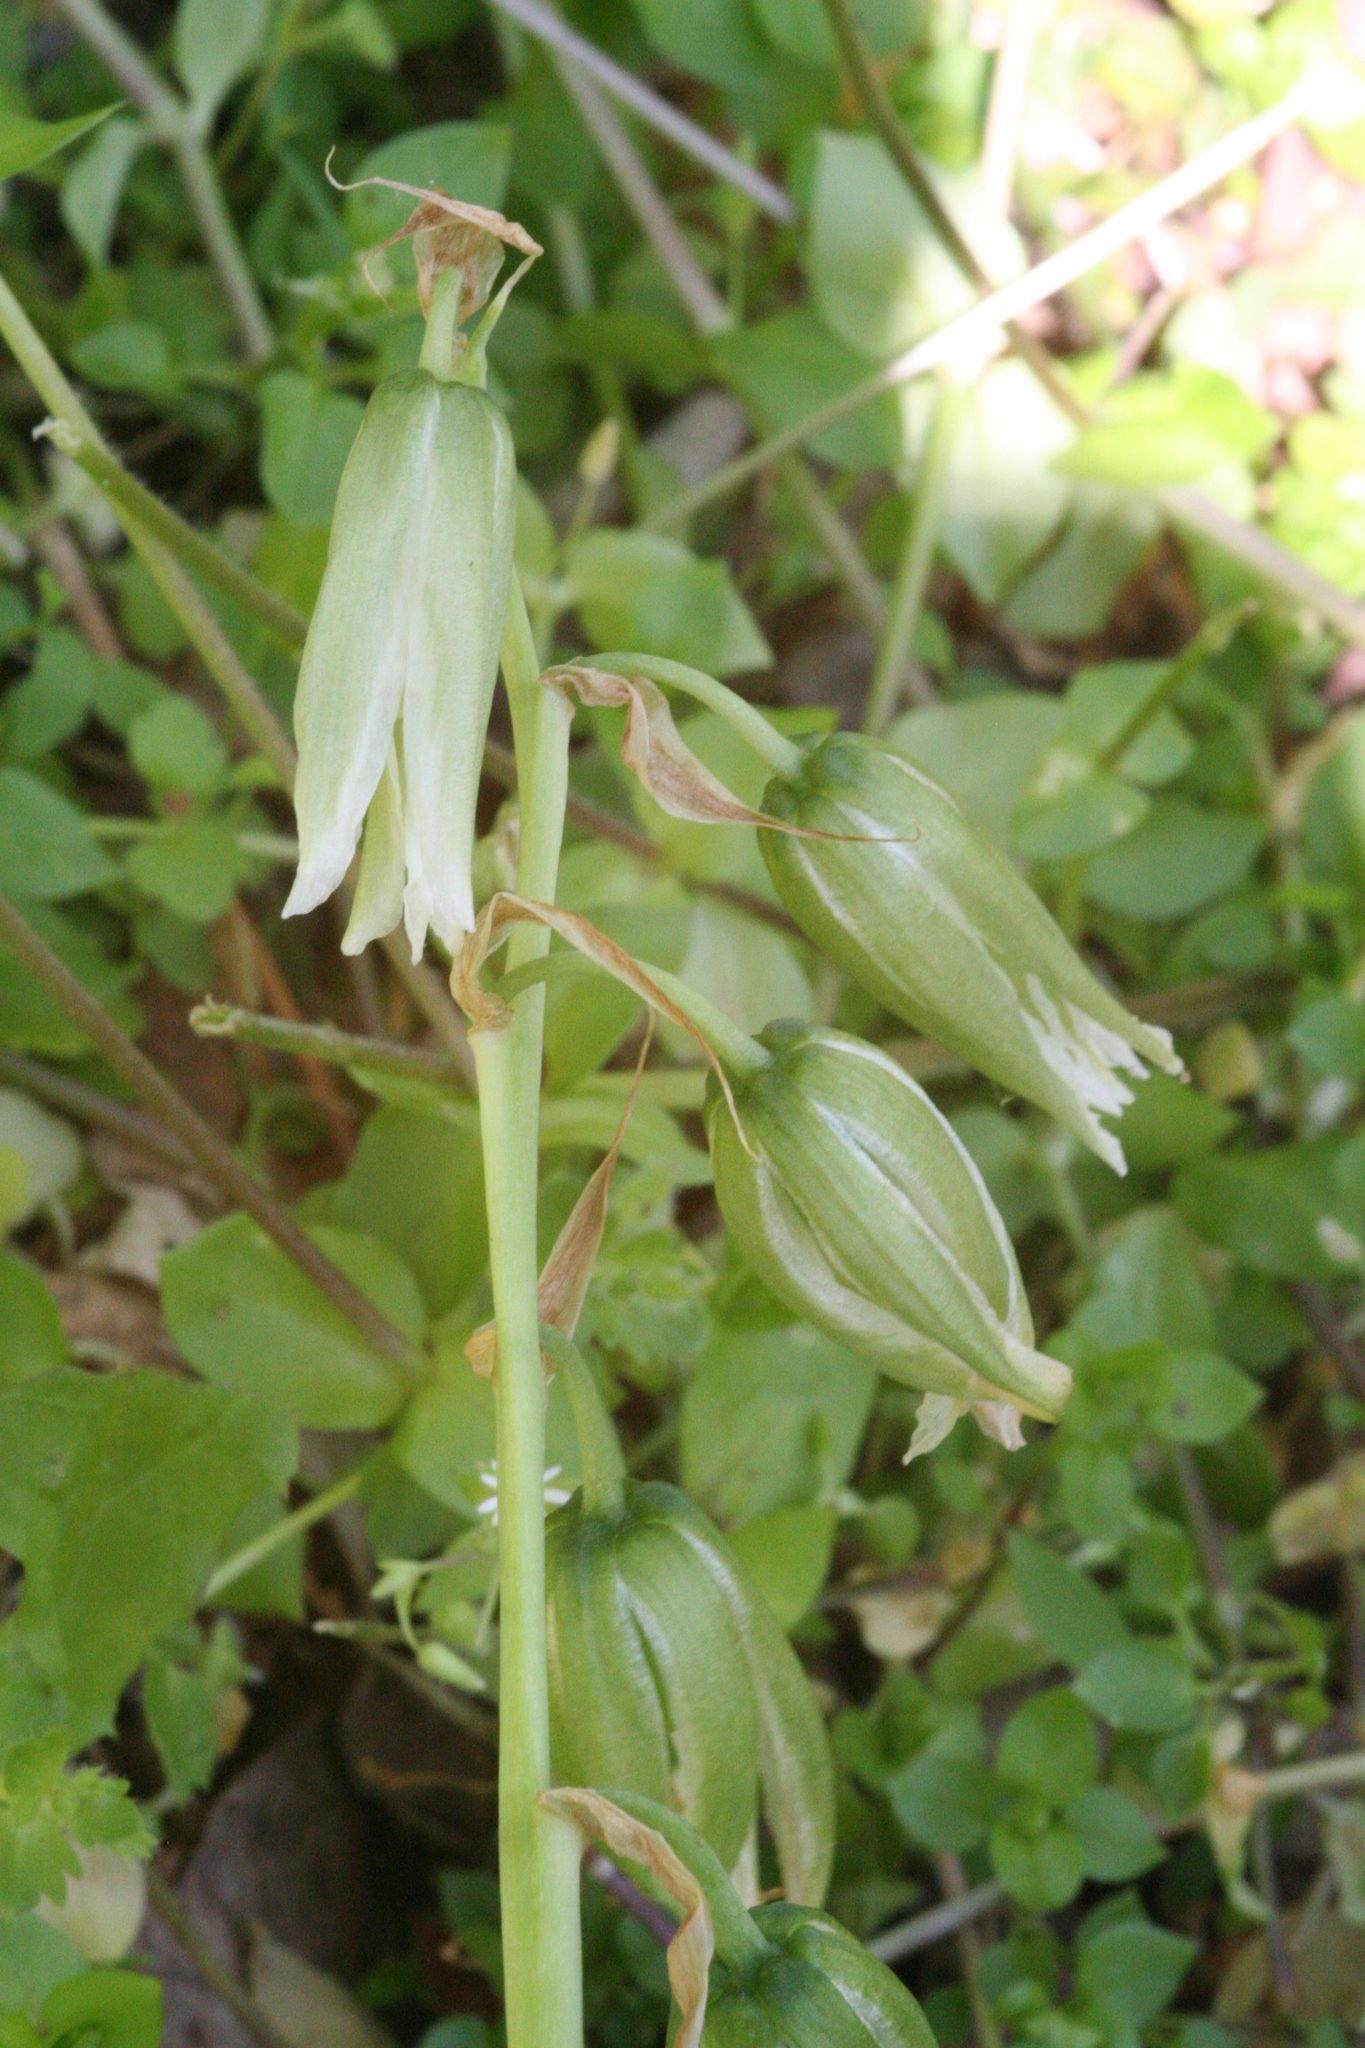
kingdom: Plantae
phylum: Tracheophyta
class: Liliopsida
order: Asparagales
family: Asparagaceae
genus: Ornithogalum
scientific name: Ornithogalum nutans
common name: Drooping star-of-bethlehem
